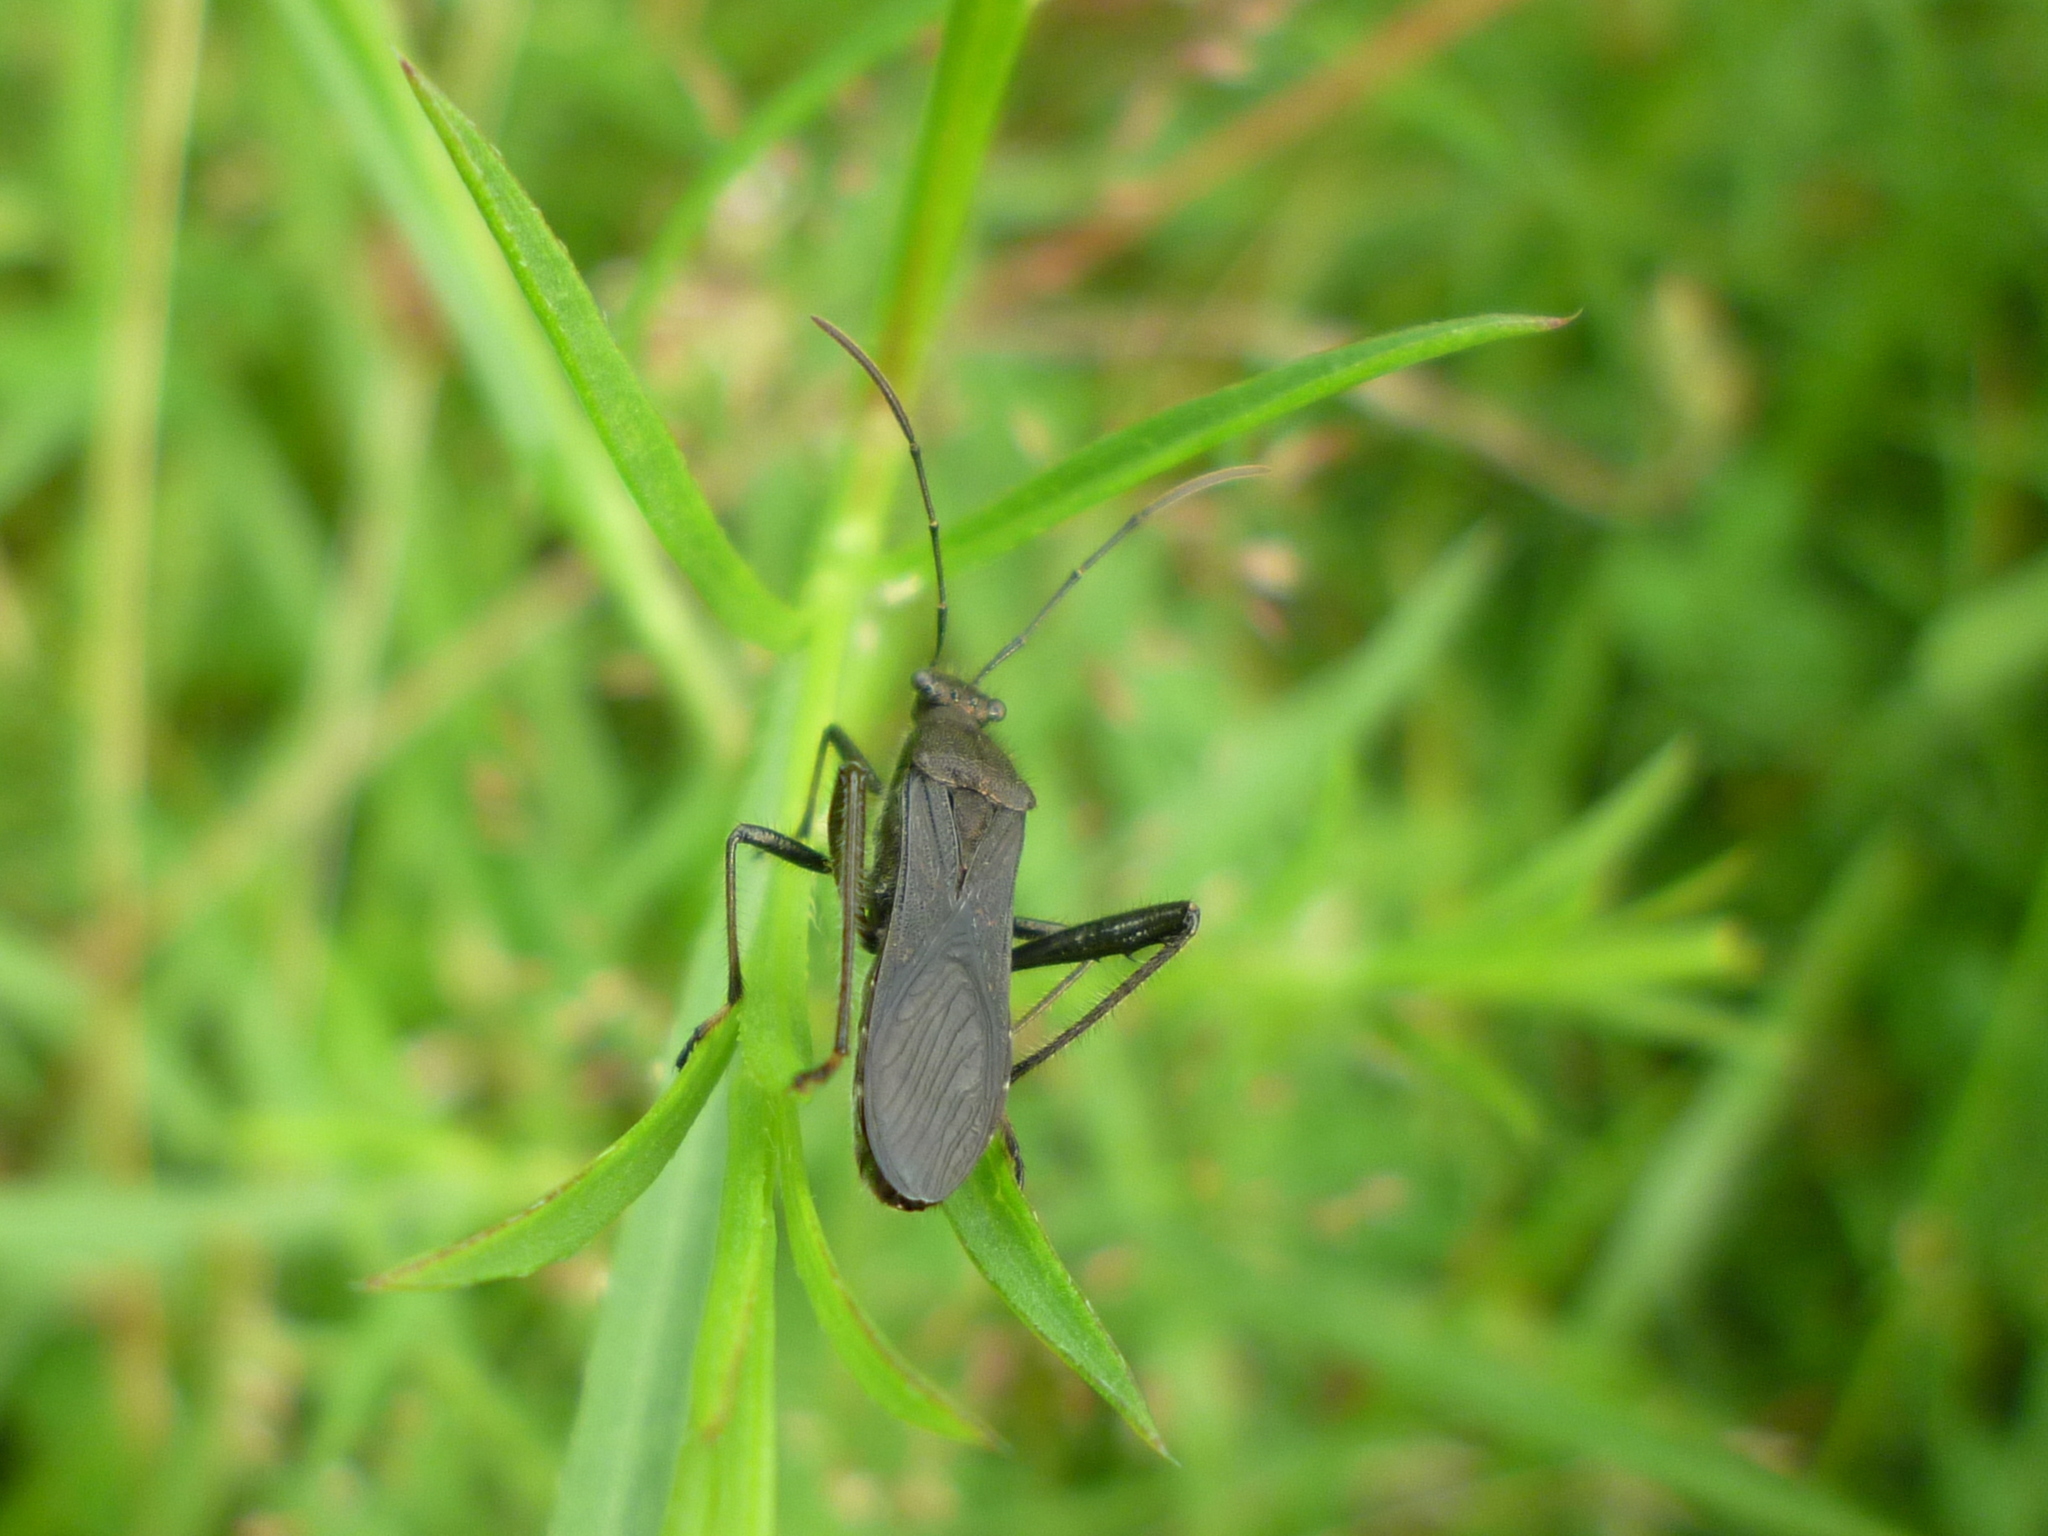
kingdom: Animalia
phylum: Arthropoda
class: Insecta
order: Hemiptera
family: Alydidae
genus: Alydus
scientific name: Alydus eurinus
